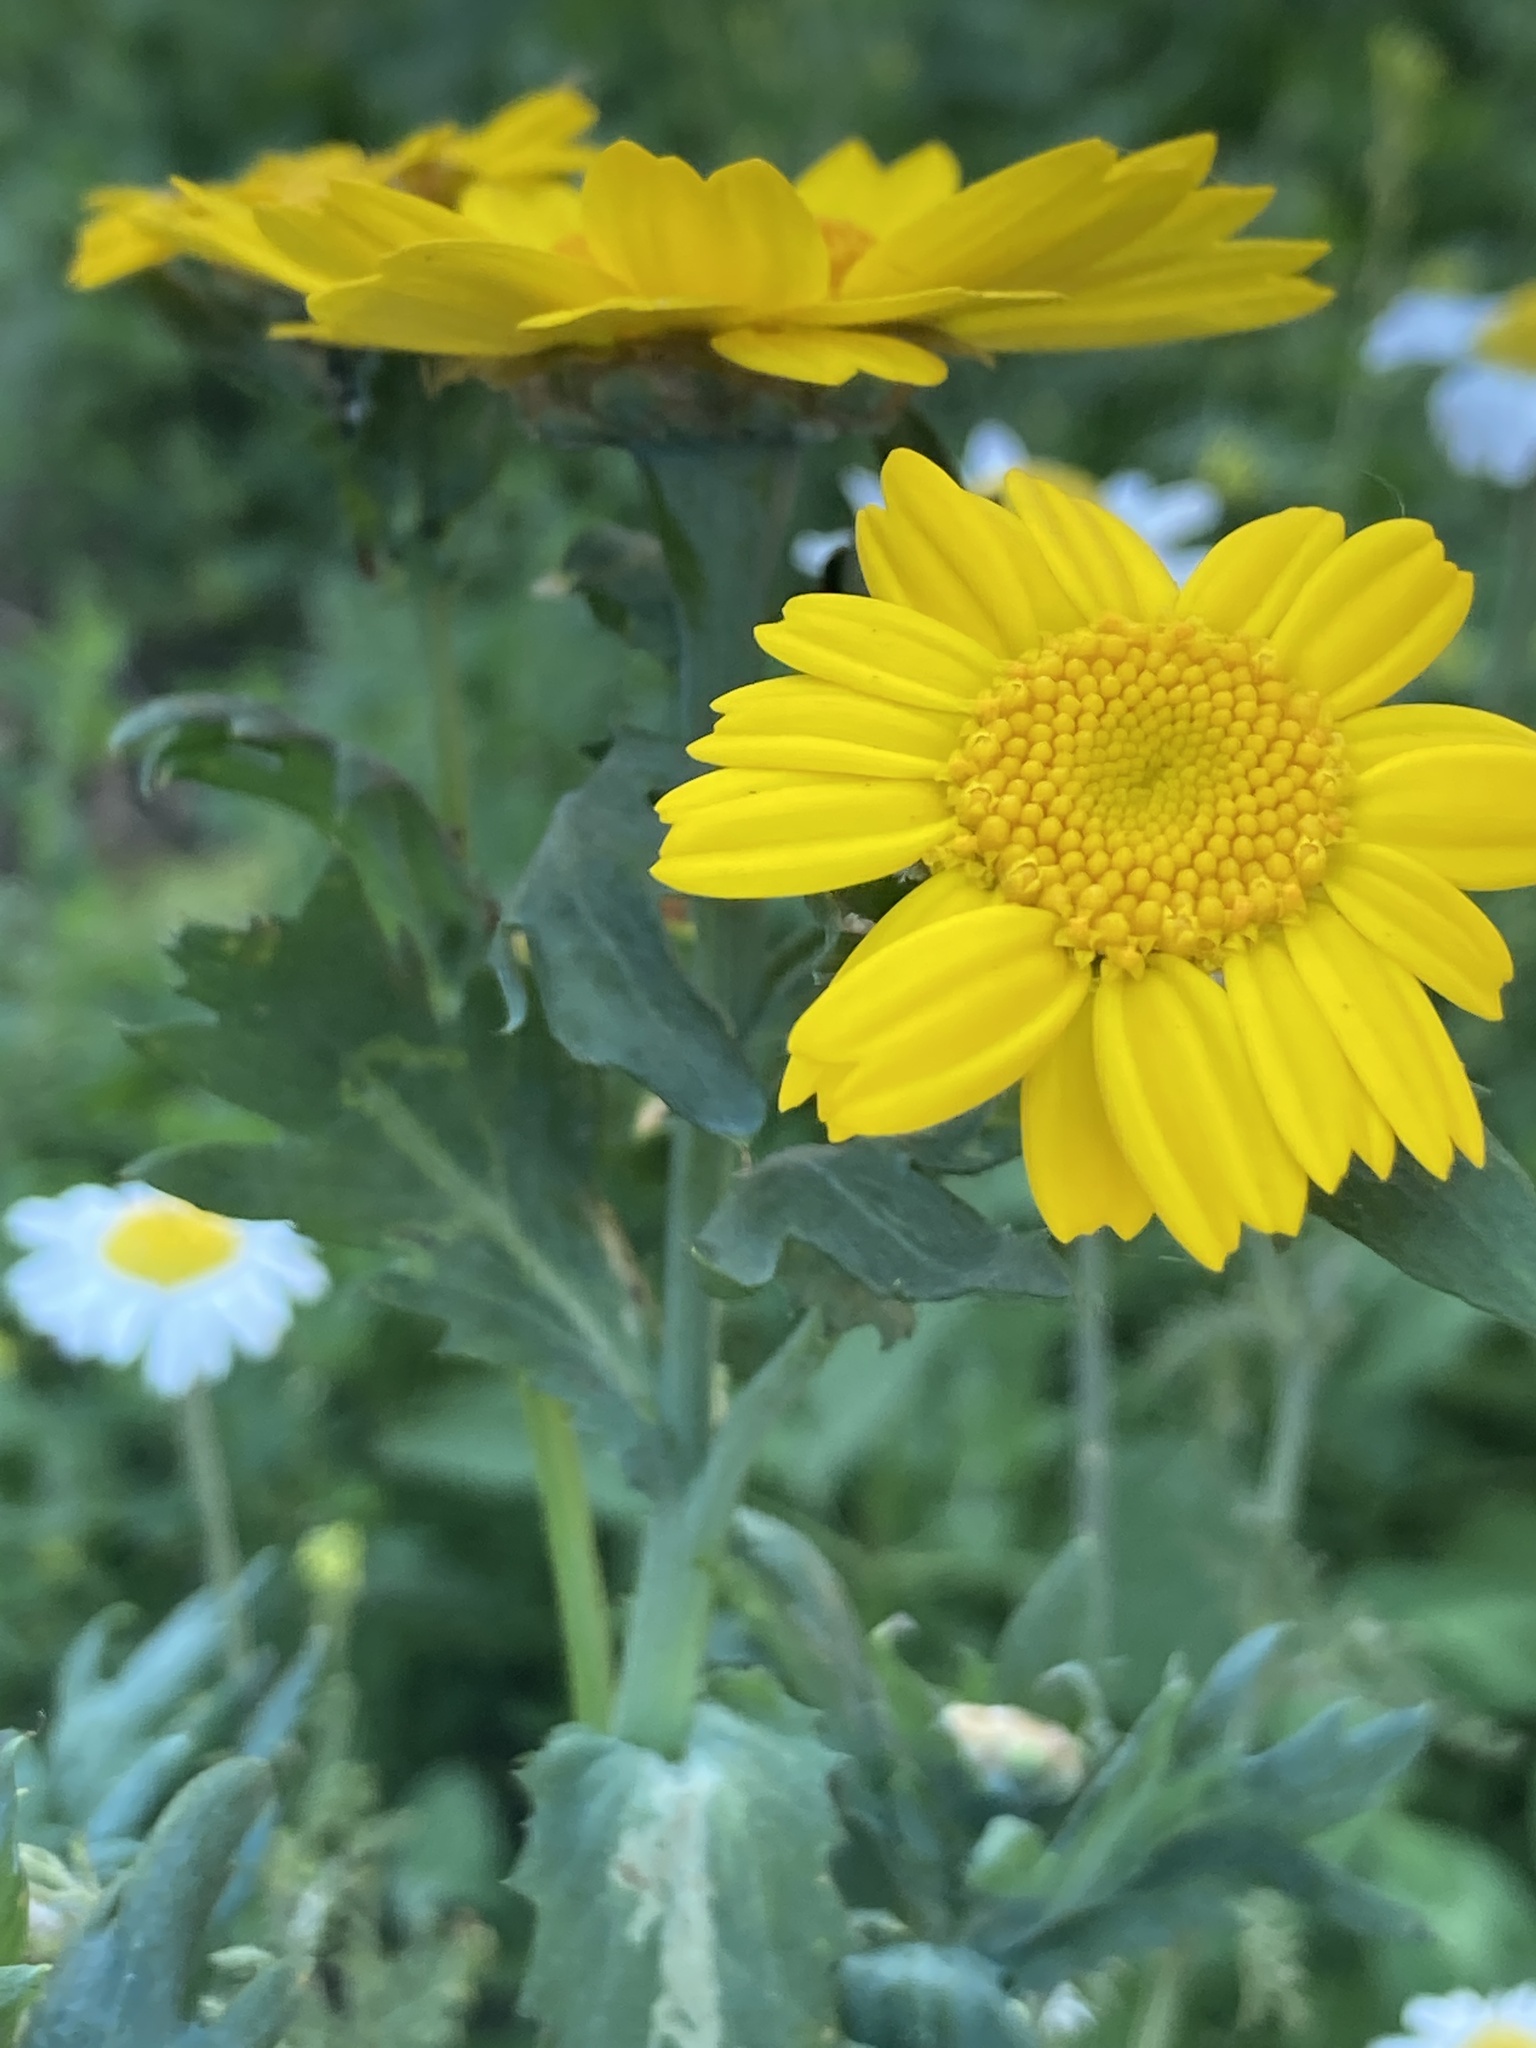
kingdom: Plantae
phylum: Tracheophyta
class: Magnoliopsida
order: Asterales
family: Asteraceae
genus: Glebionis
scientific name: Glebionis segetum
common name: Corndaisy
